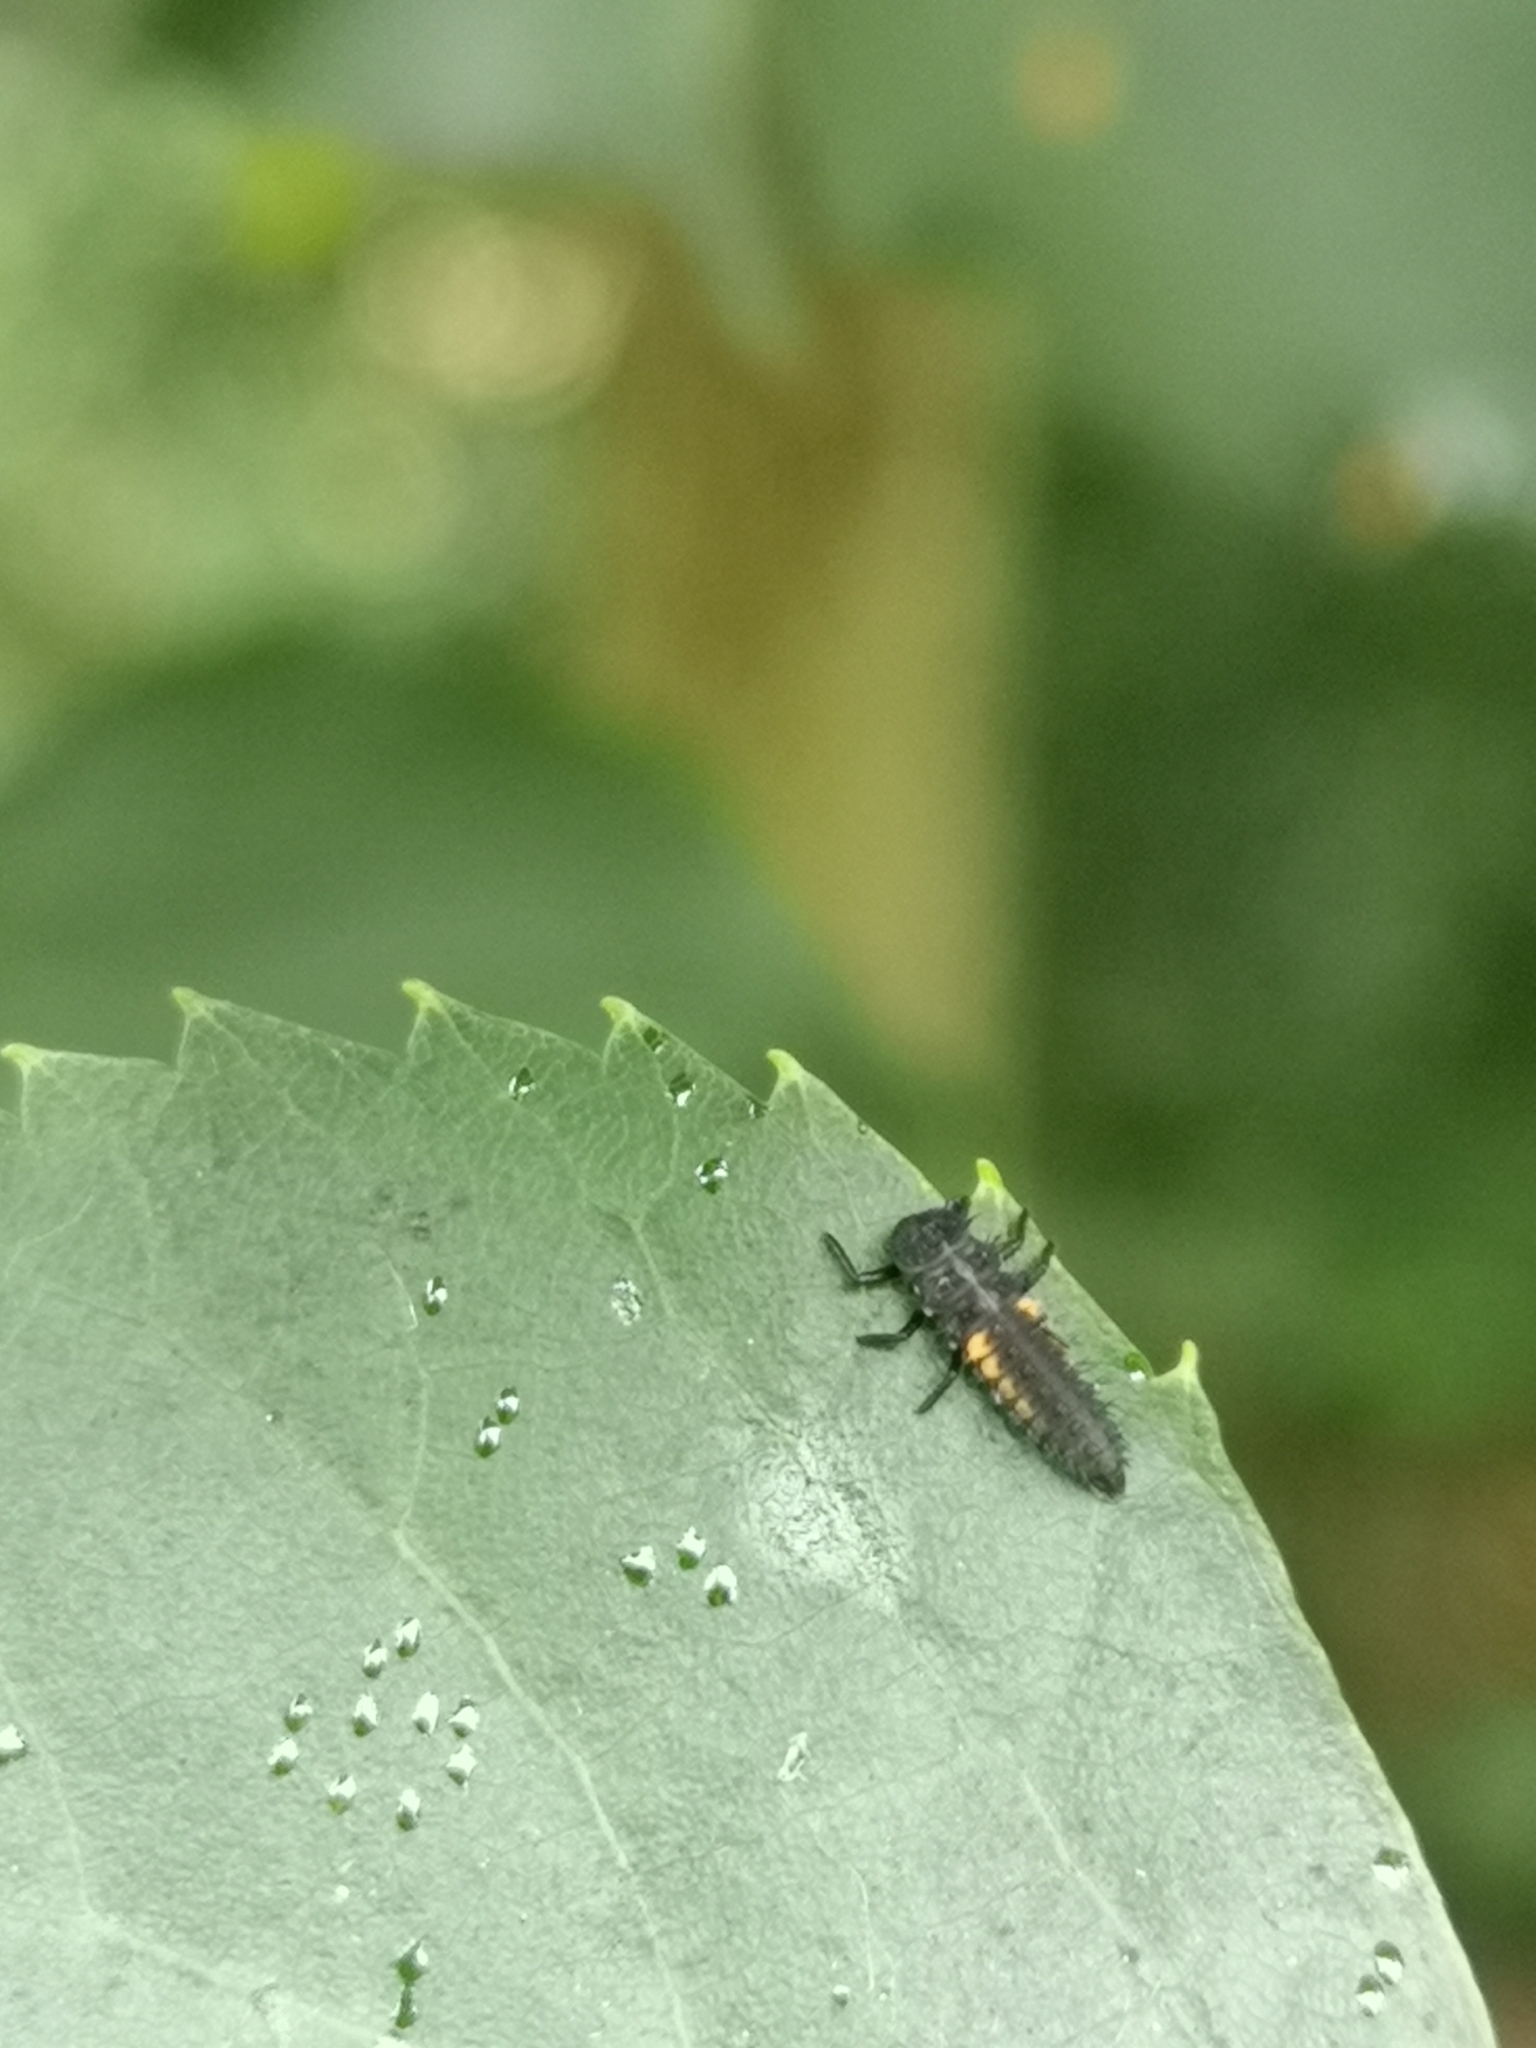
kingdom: Animalia
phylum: Arthropoda
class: Insecta
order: Coleoptera
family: Coccinellidae
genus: Harmonia
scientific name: Harmonia axyridis
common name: Harlequin ladybird
